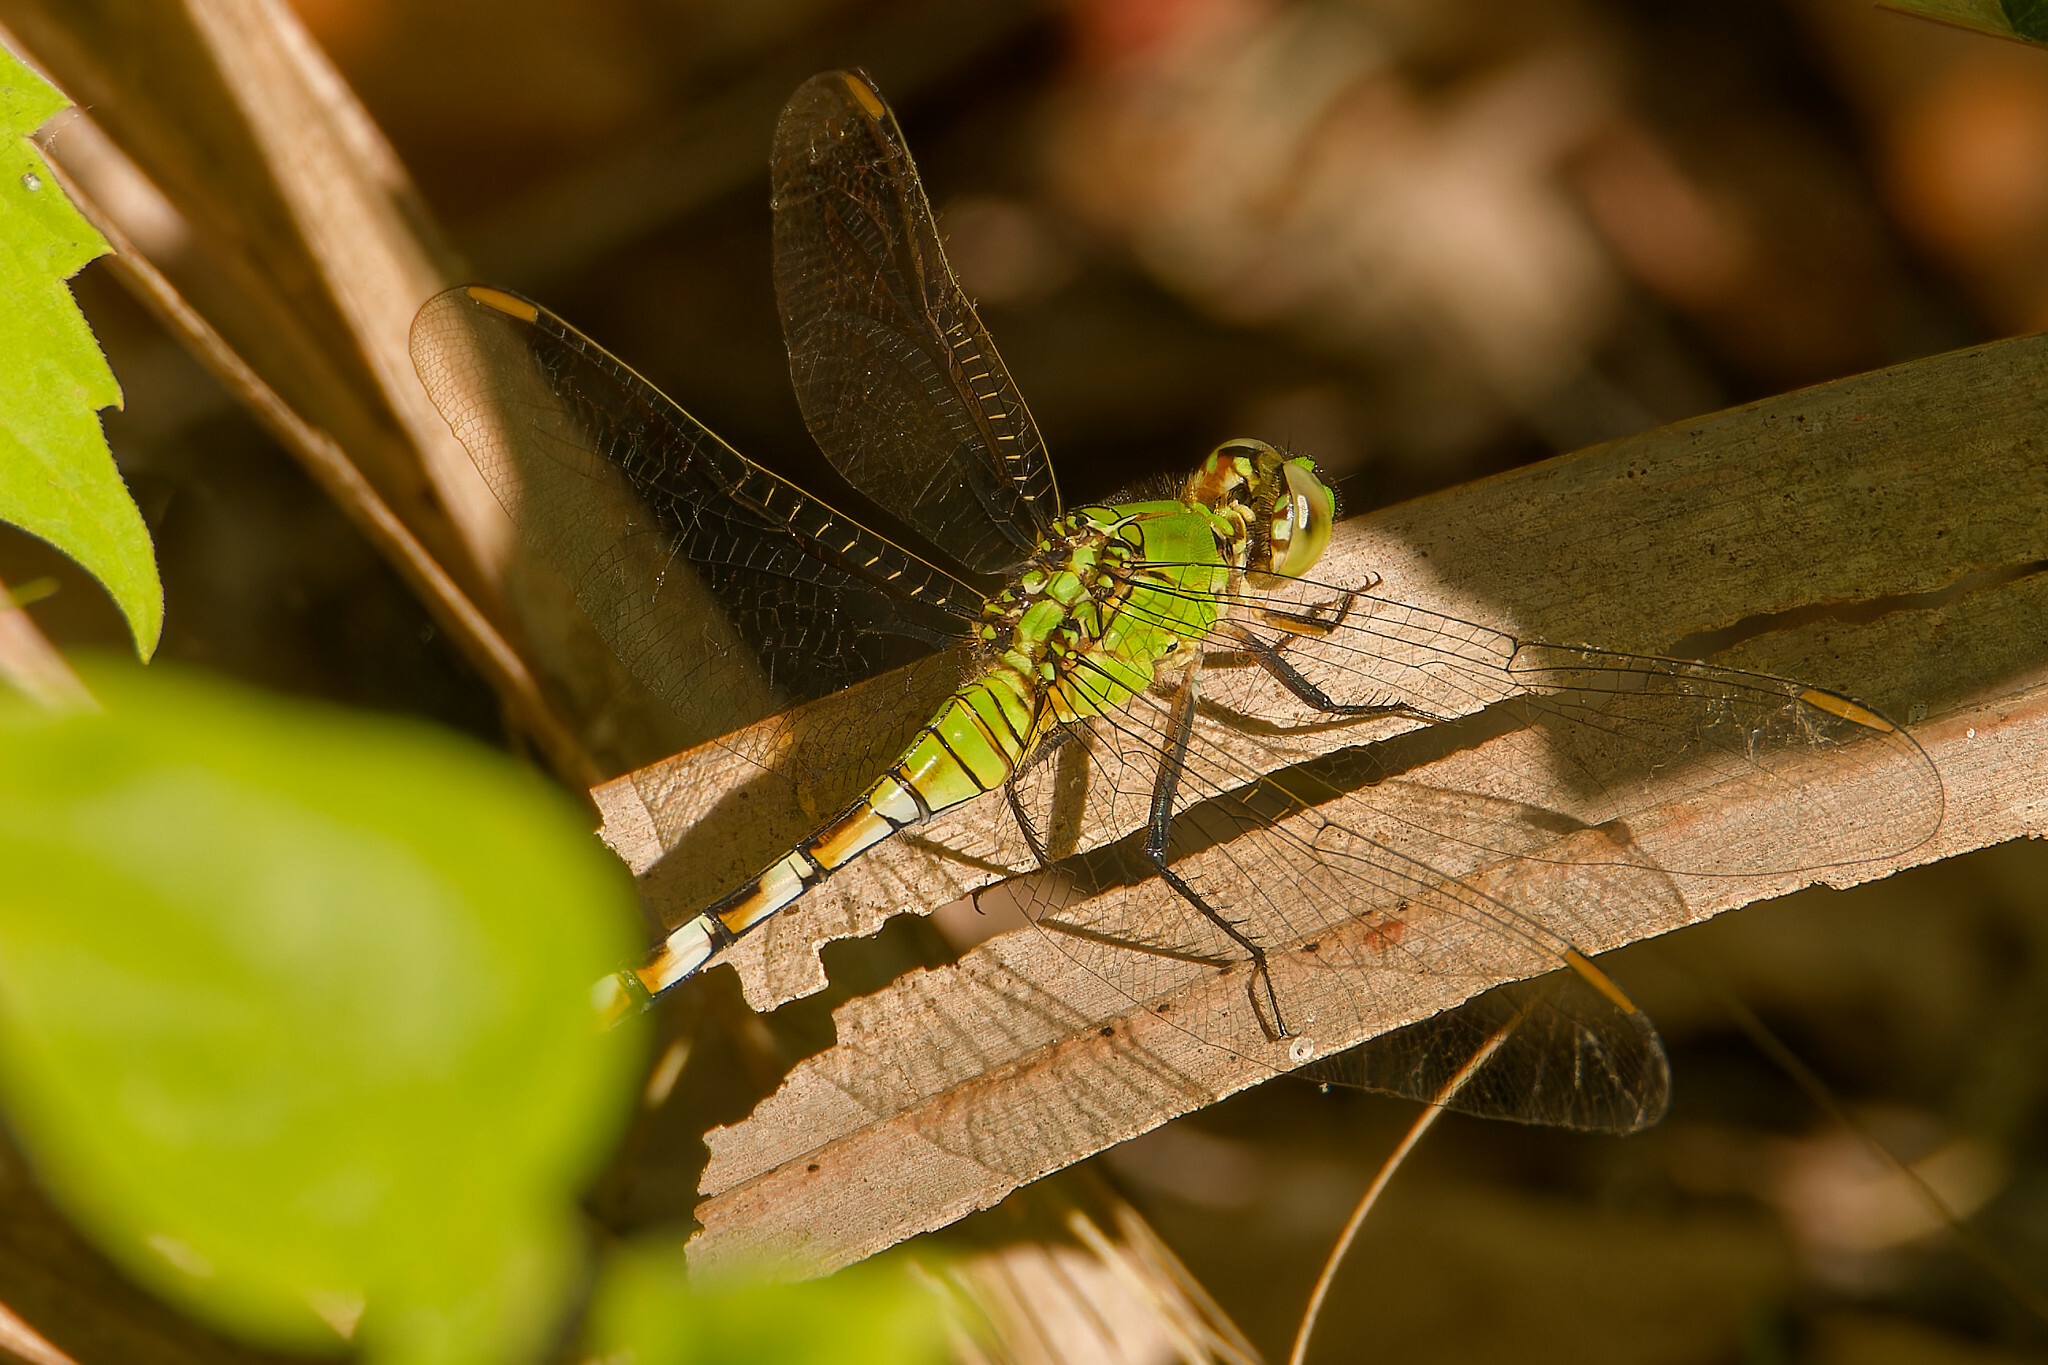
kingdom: Animalia
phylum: Arthropoda
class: Insecta
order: Odonata
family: Libellulidae
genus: Erythemis
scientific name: Erythemis simplicicollis
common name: Eastern pondhawk
